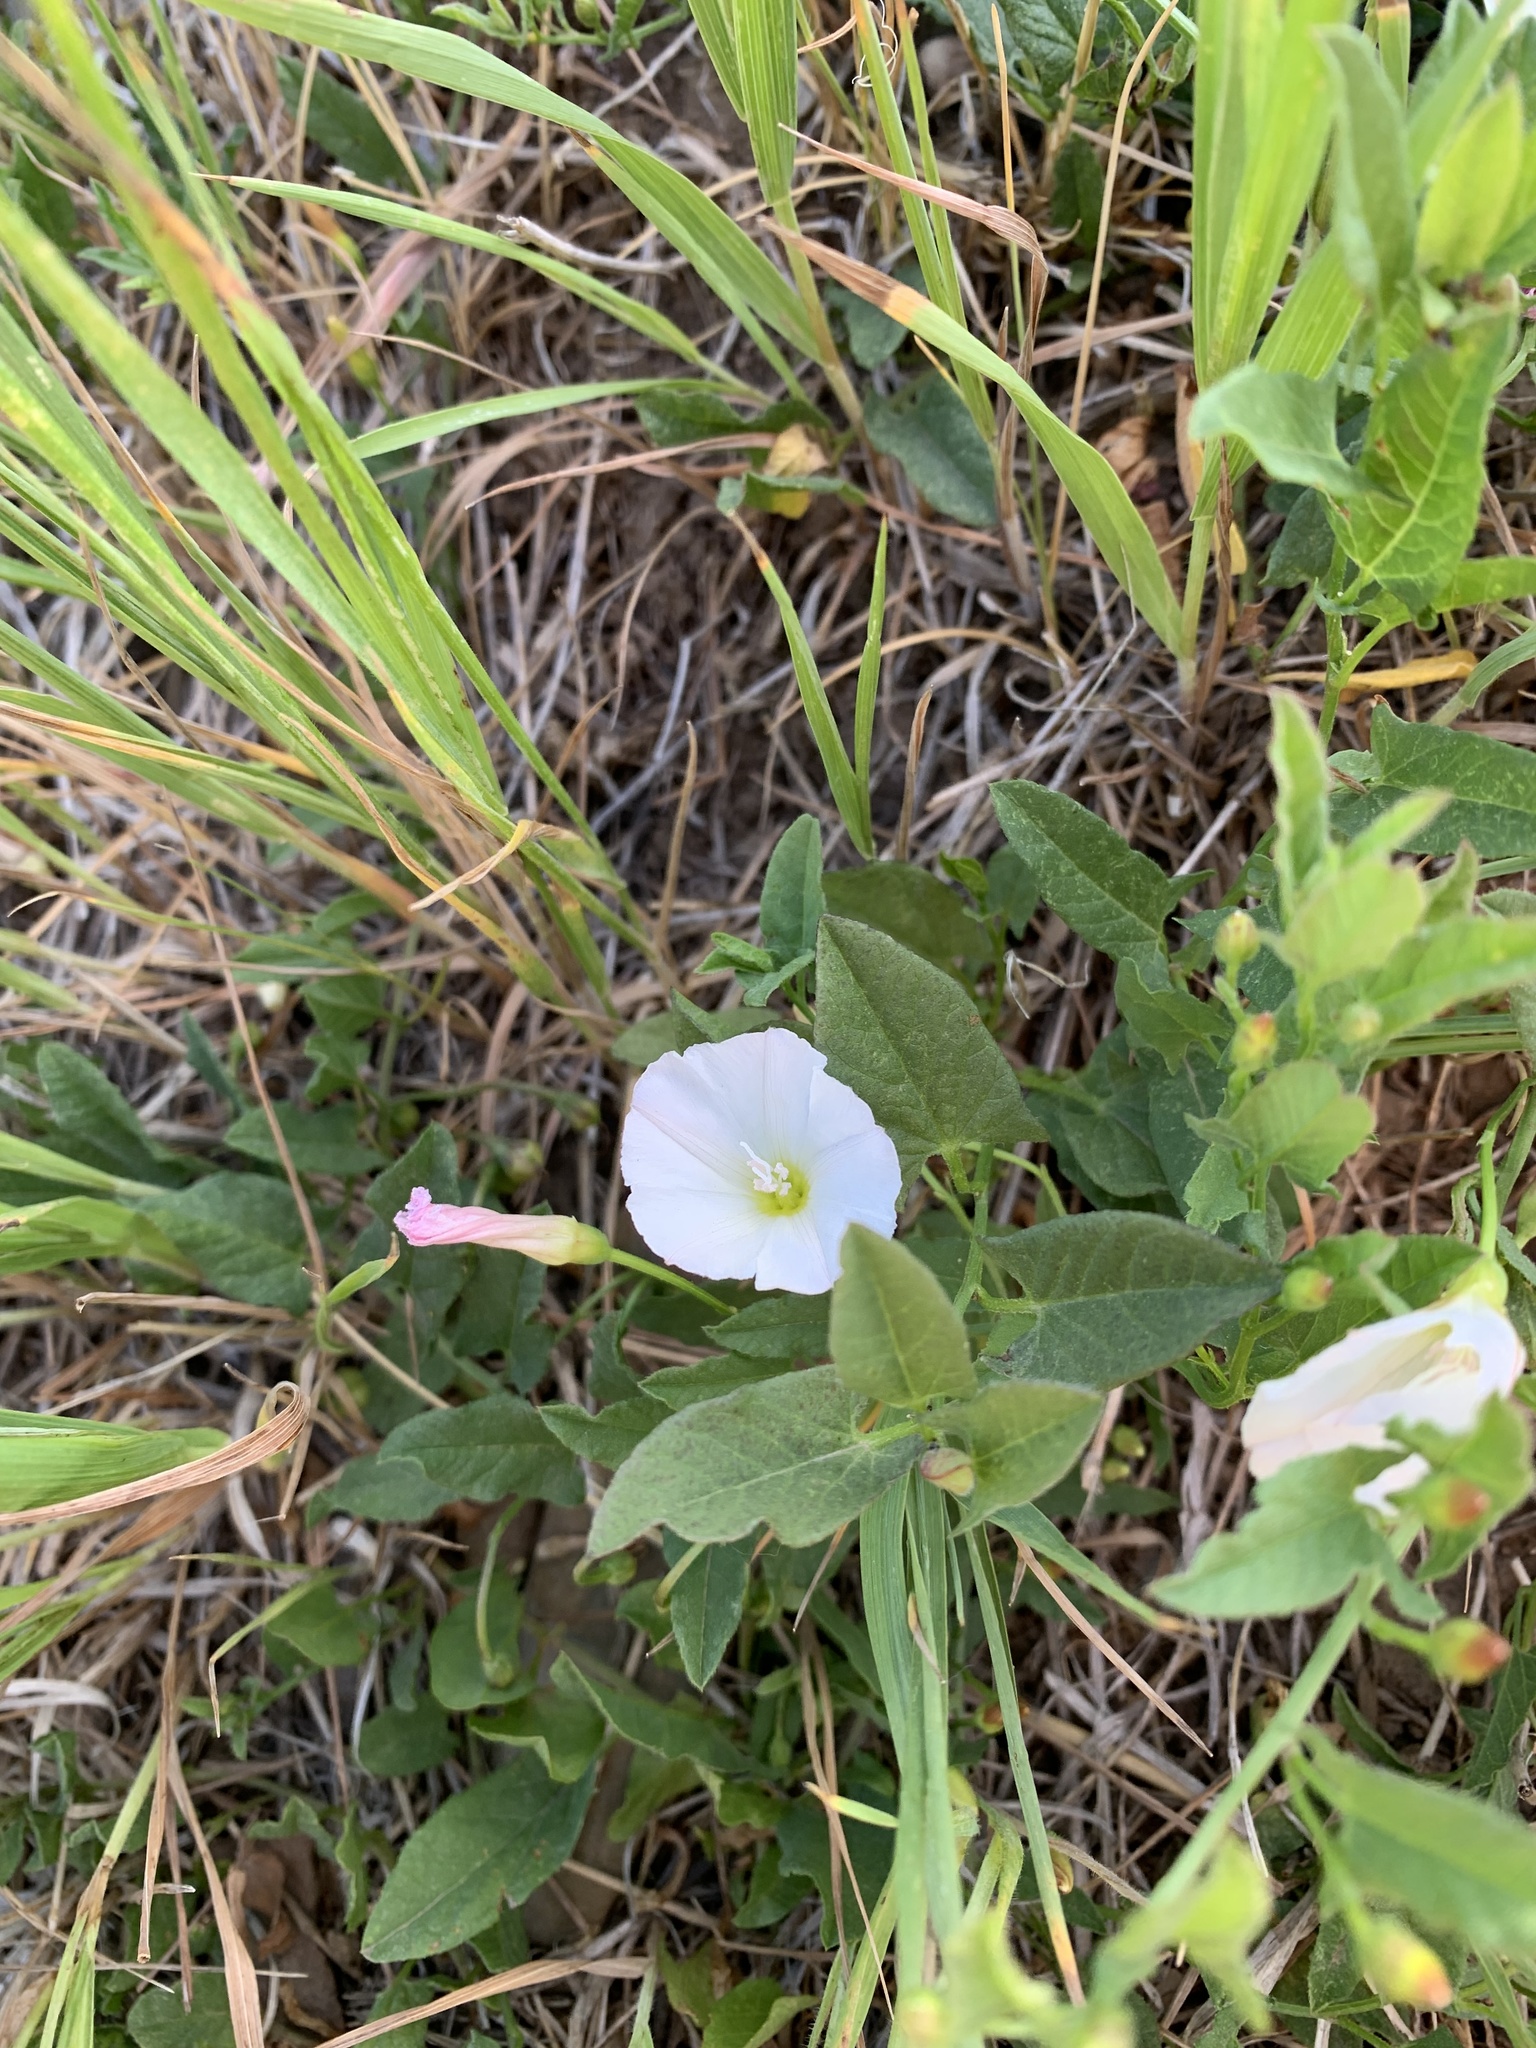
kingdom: Plantae
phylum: Tracheophyta
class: Magnoliopsida
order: Solanales
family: Convolvulaceae
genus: Convolvulus
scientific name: Convolvulus arvensis
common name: Field bindweed
